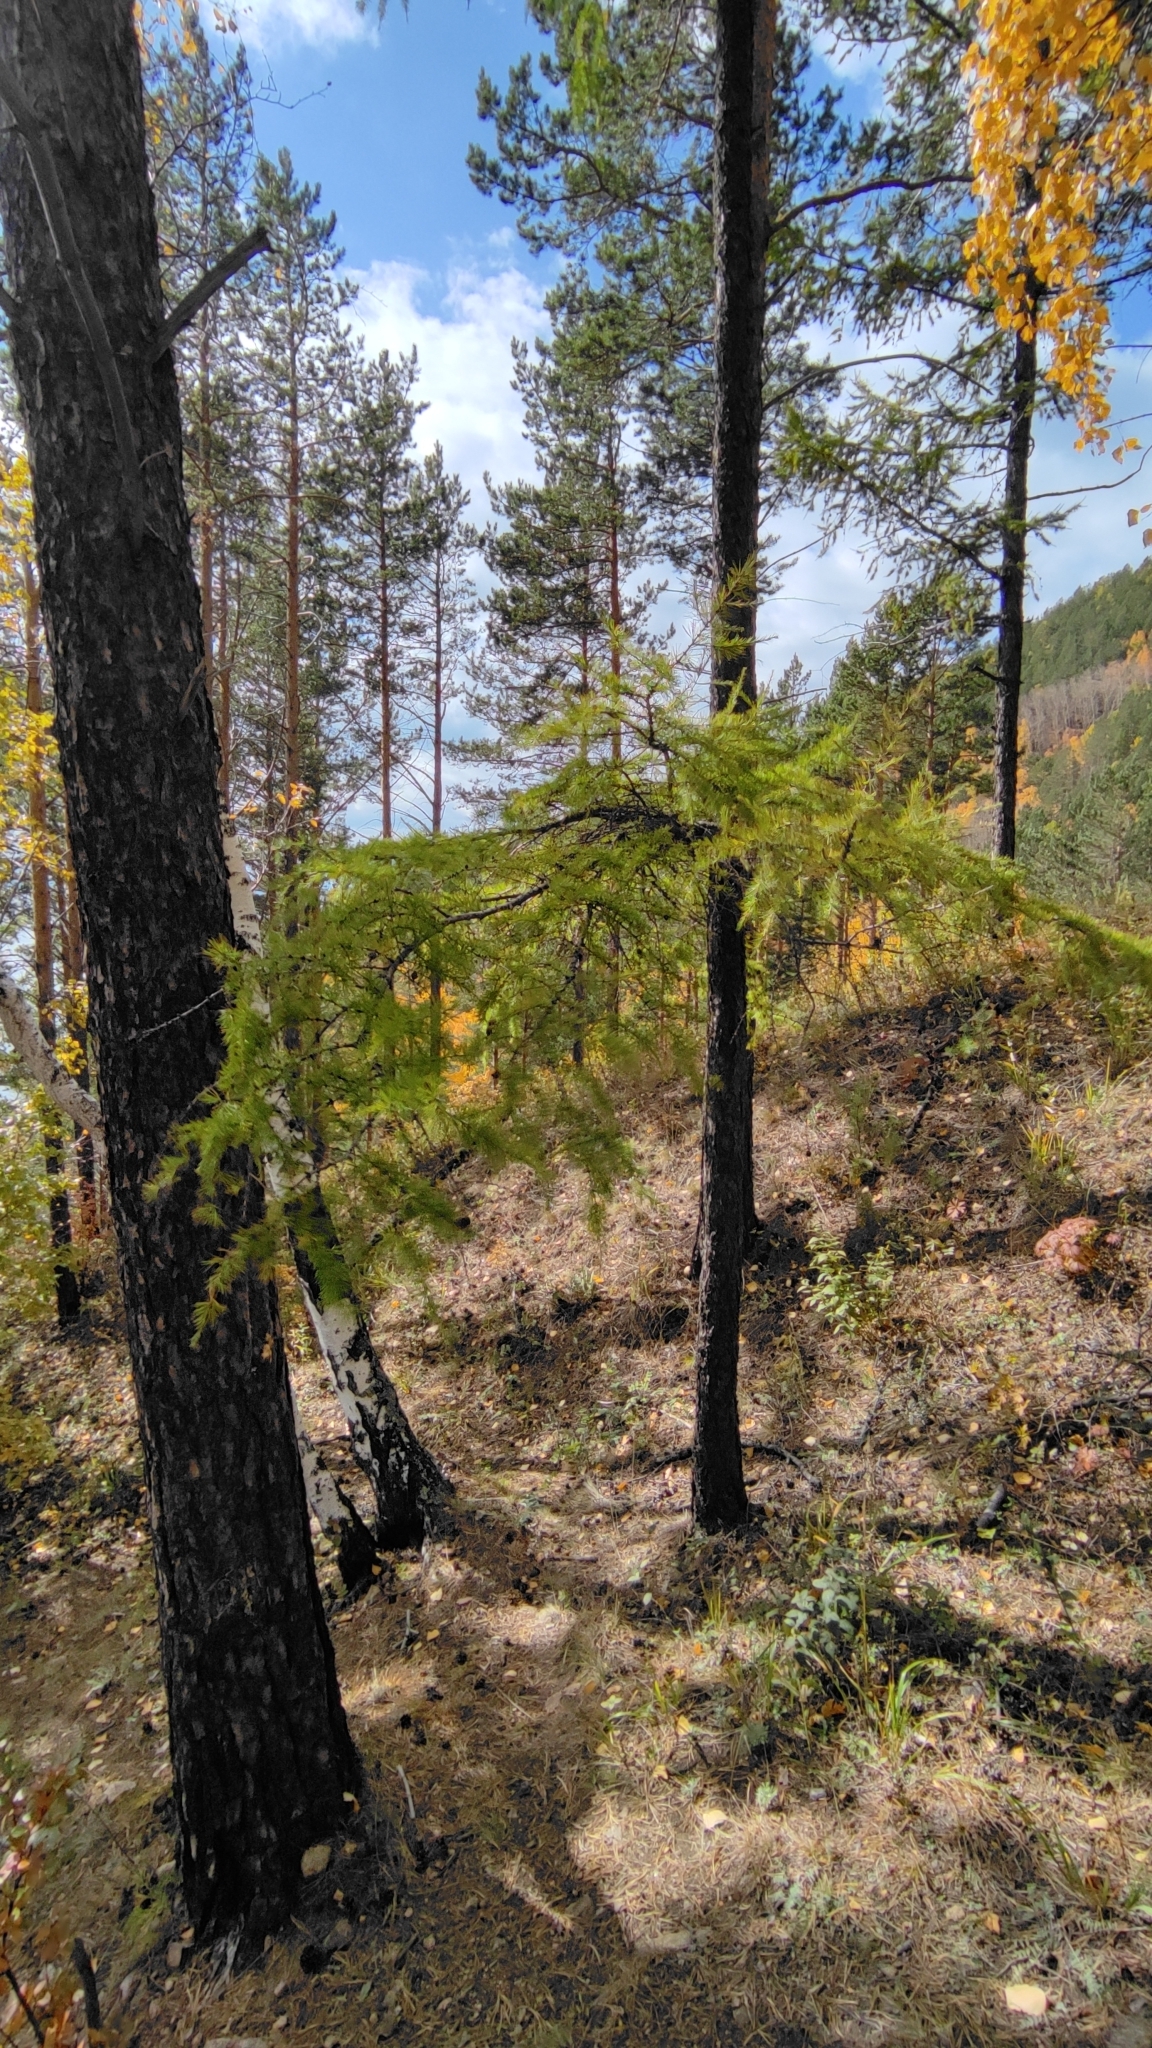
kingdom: Plantae
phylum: Tracheophyta
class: Pinopsida
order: Pinales
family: Pinaceae
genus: Larix
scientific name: Larix sibirica
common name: Siberian larch
